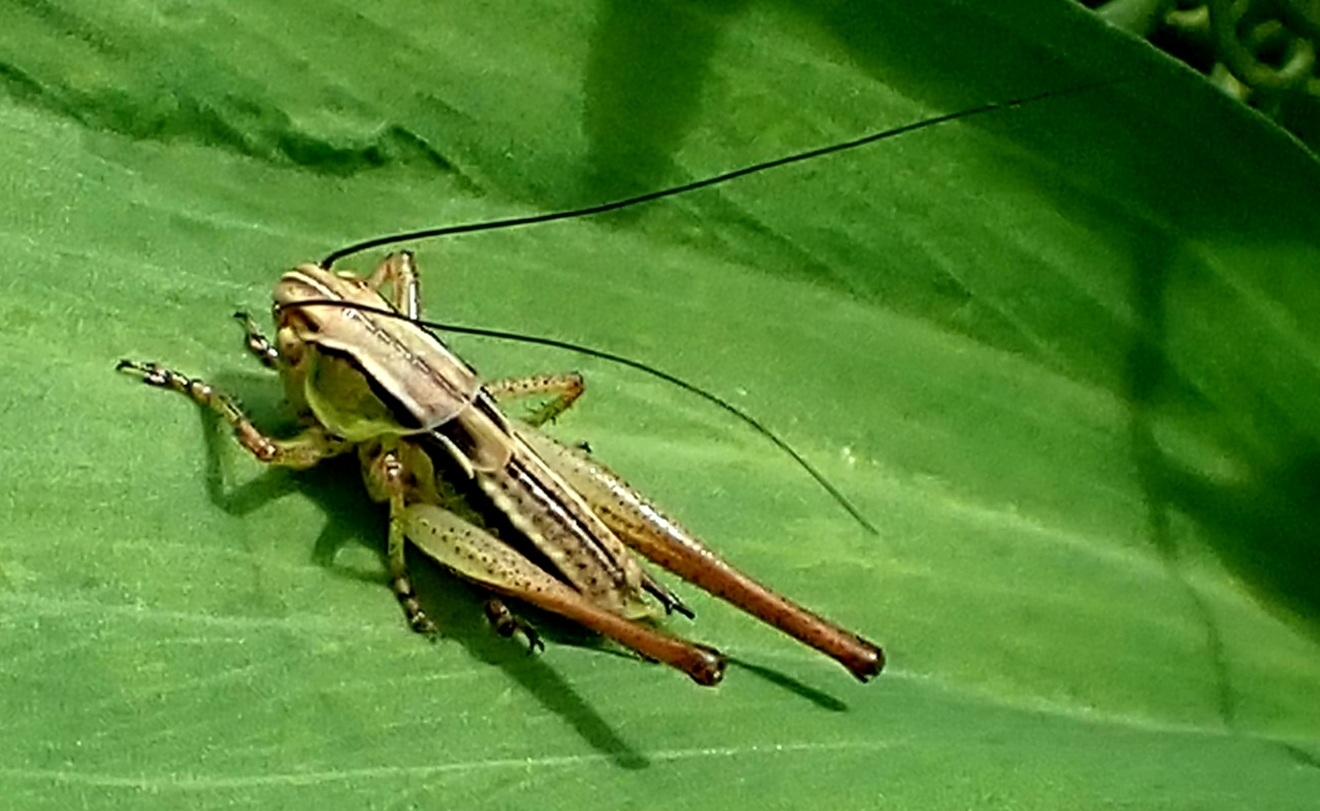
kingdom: Animalia
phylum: Arthropoda
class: Insecta
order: Orthoptera
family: Tettigoniidae
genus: Roeseliana
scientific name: Roeseliana roeselii
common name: Roesel's bush cricket
